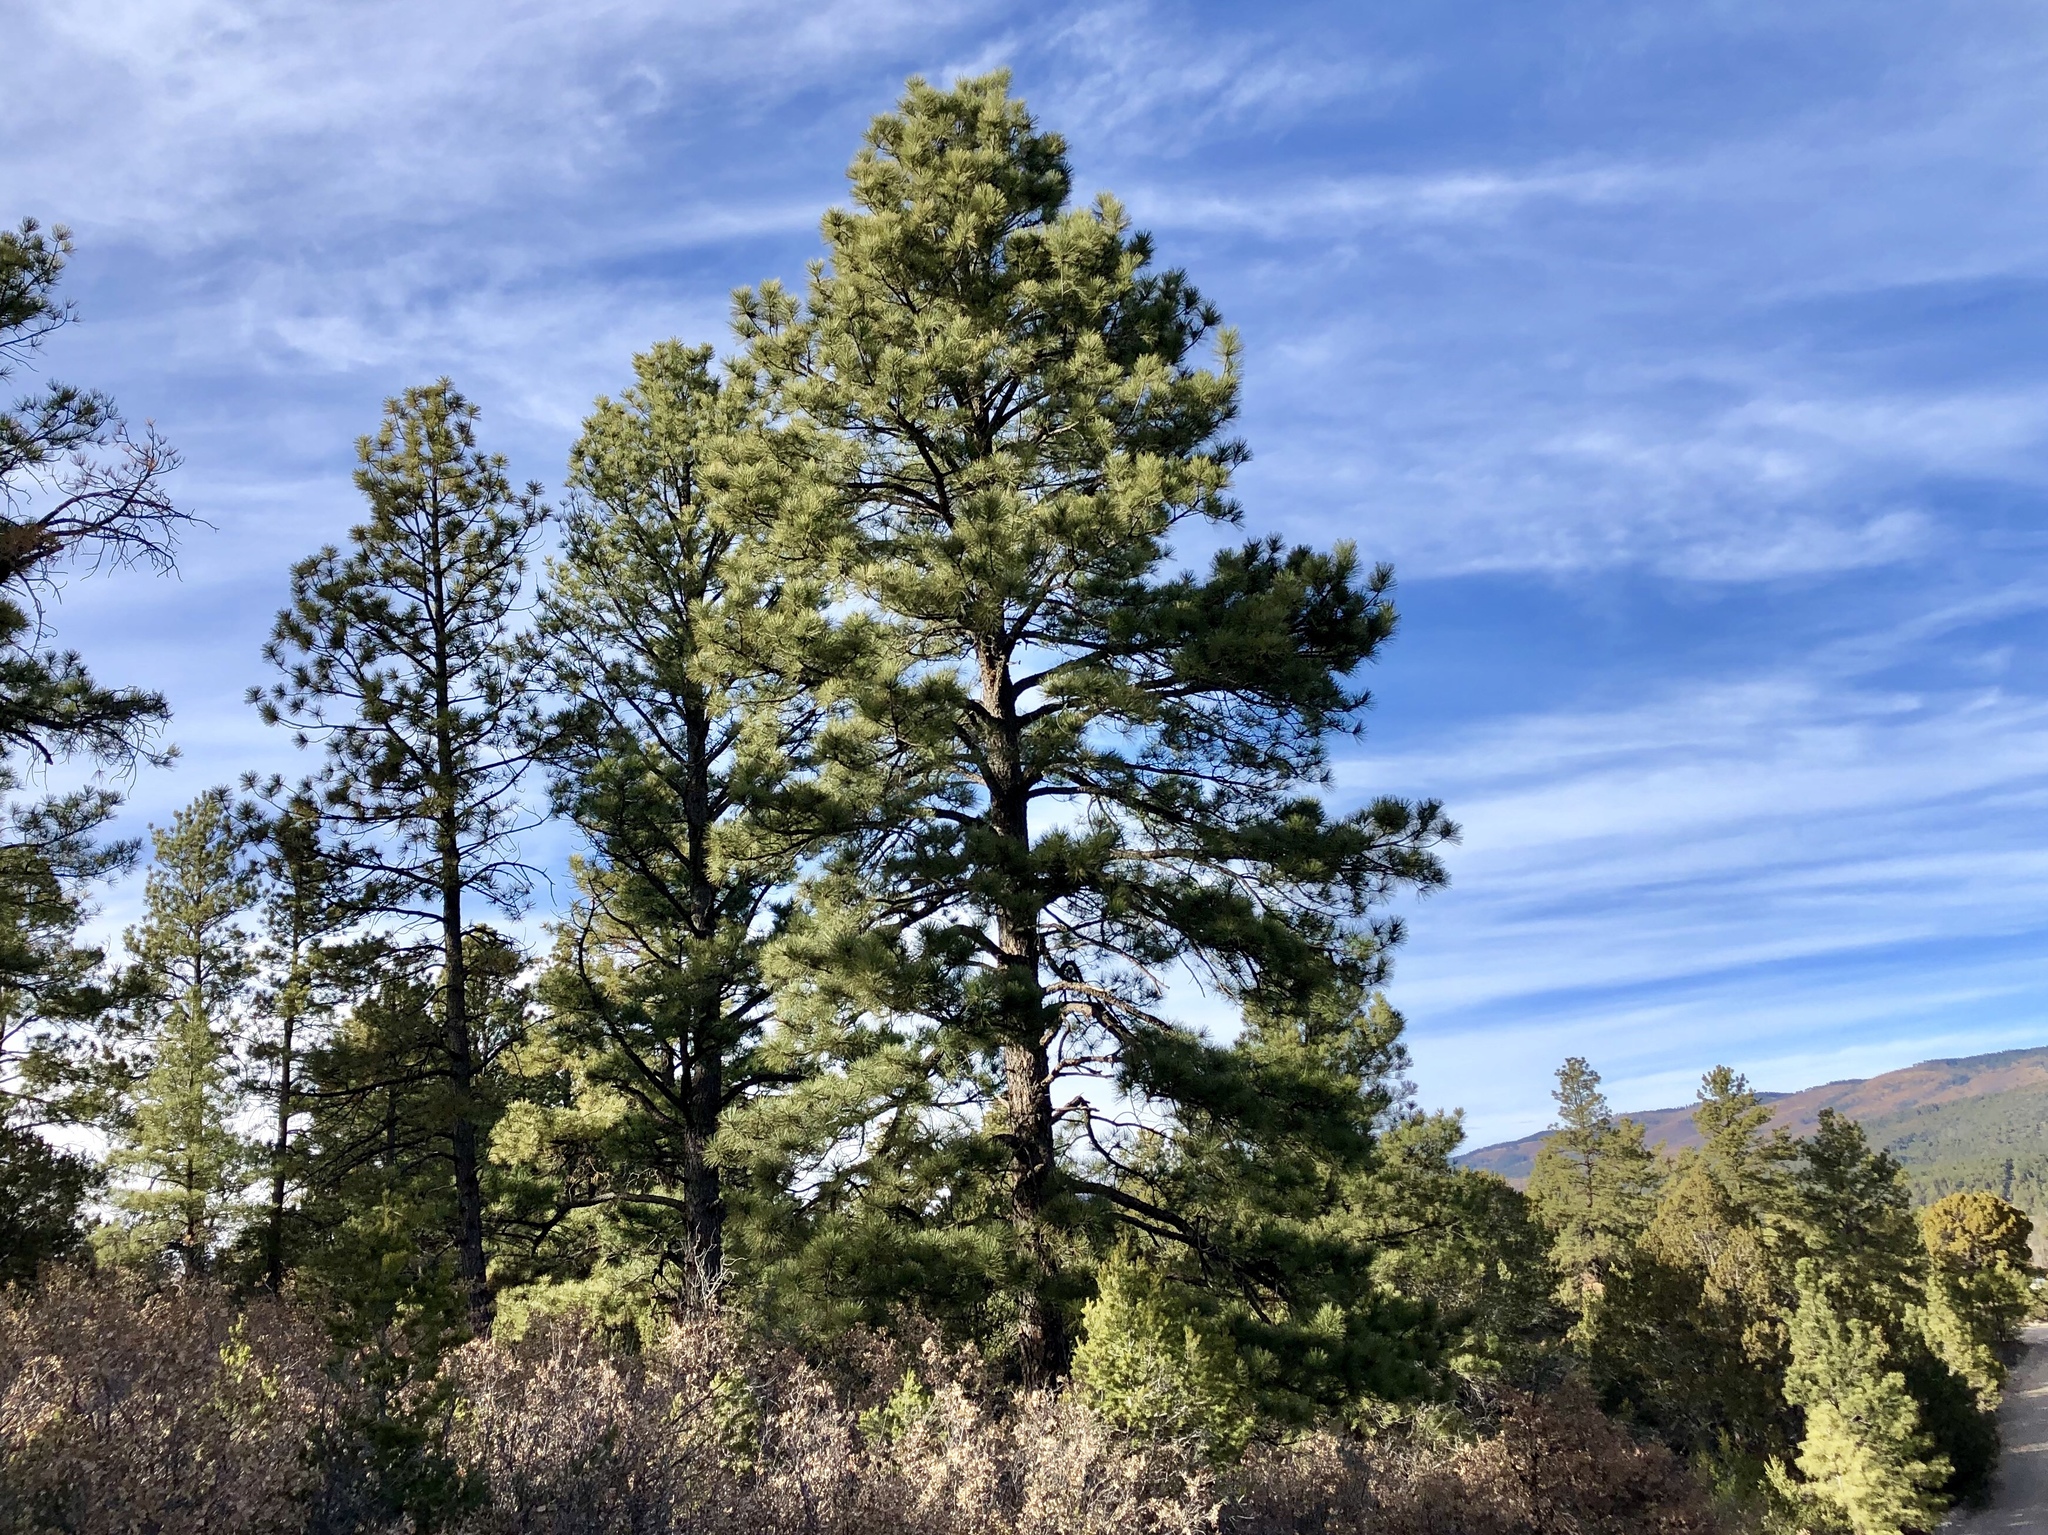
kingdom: Plantae
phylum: Tracheophyta
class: Pinopsida
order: Pinales
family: Pinaceae
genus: Pinus
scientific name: Pinus ponderosa
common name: Western yellow-pine
